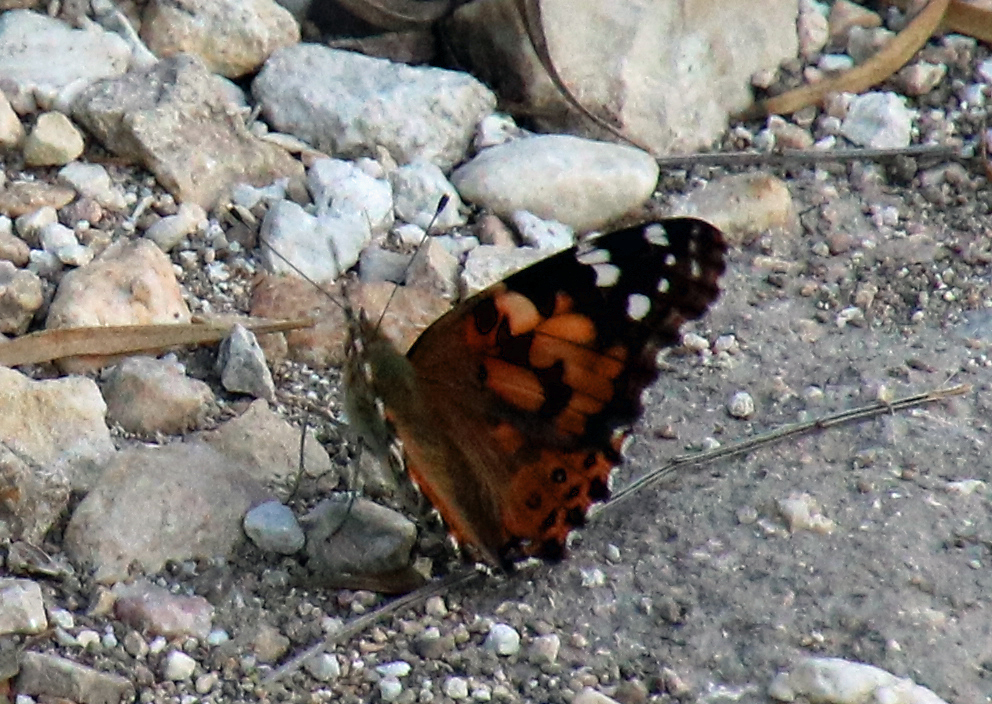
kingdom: Animalia
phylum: Arthropoda
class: Insecta
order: Lepidoptera
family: Nymphalidae
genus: Vanessa
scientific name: Vanessa cardui
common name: Painted lady
